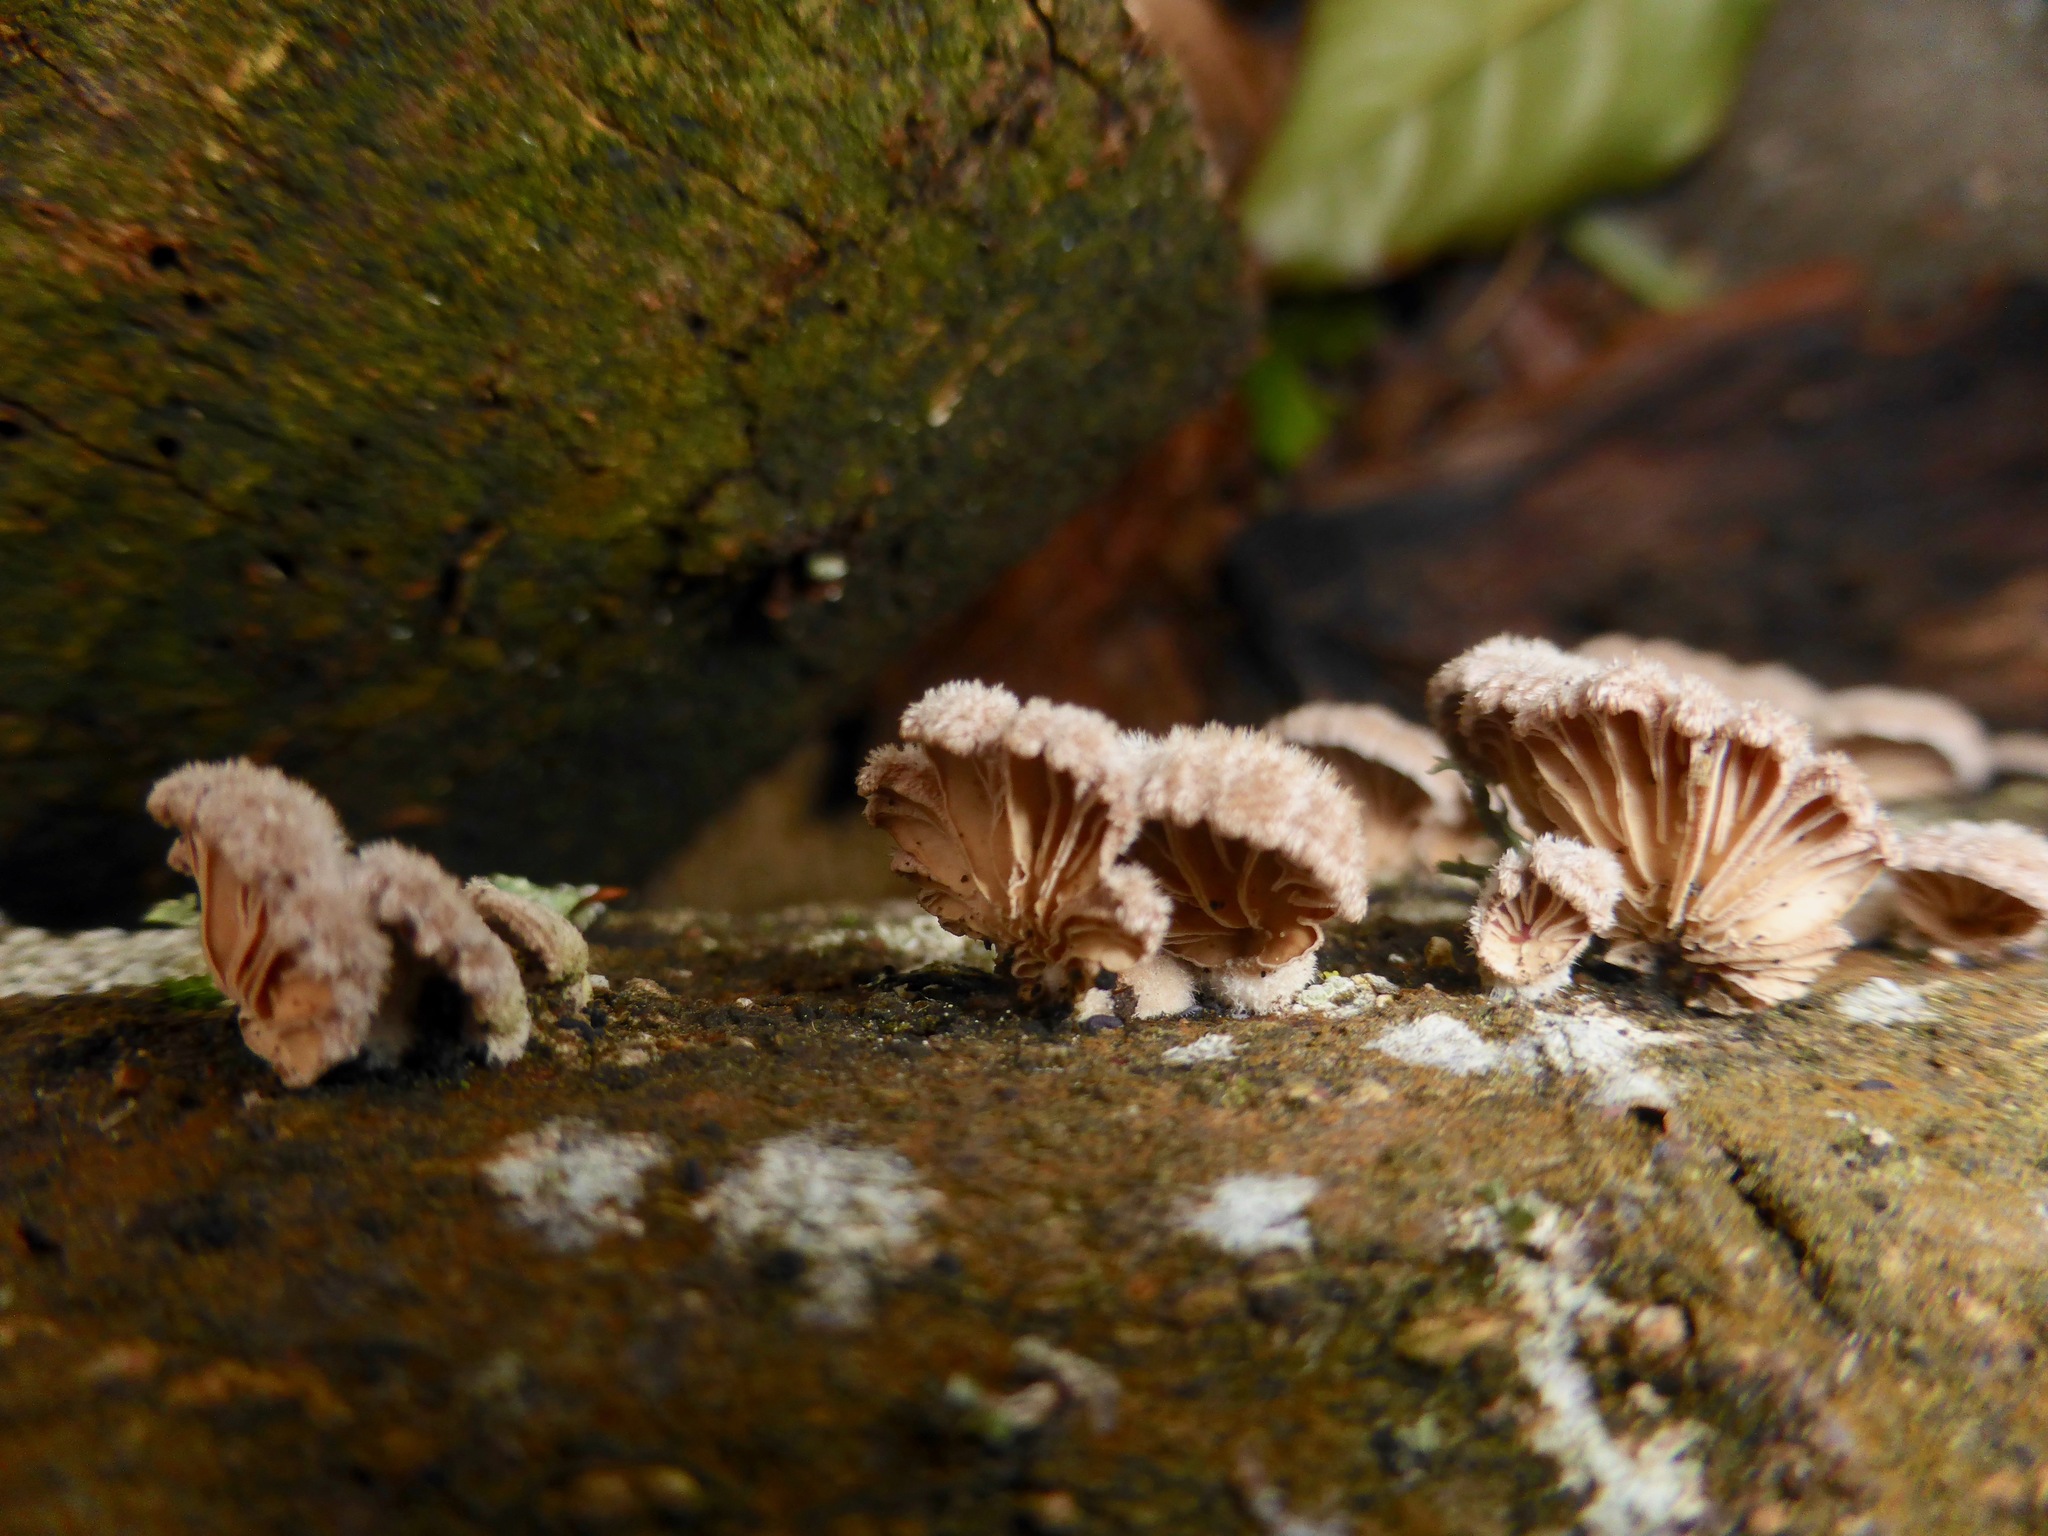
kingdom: Fungi
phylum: Basidiomycota
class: Agaricomycetes
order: Agaricales
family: Schizophyllaceae
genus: Schizophyllum
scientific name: Schizophyllum commune
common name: Common porecrust
